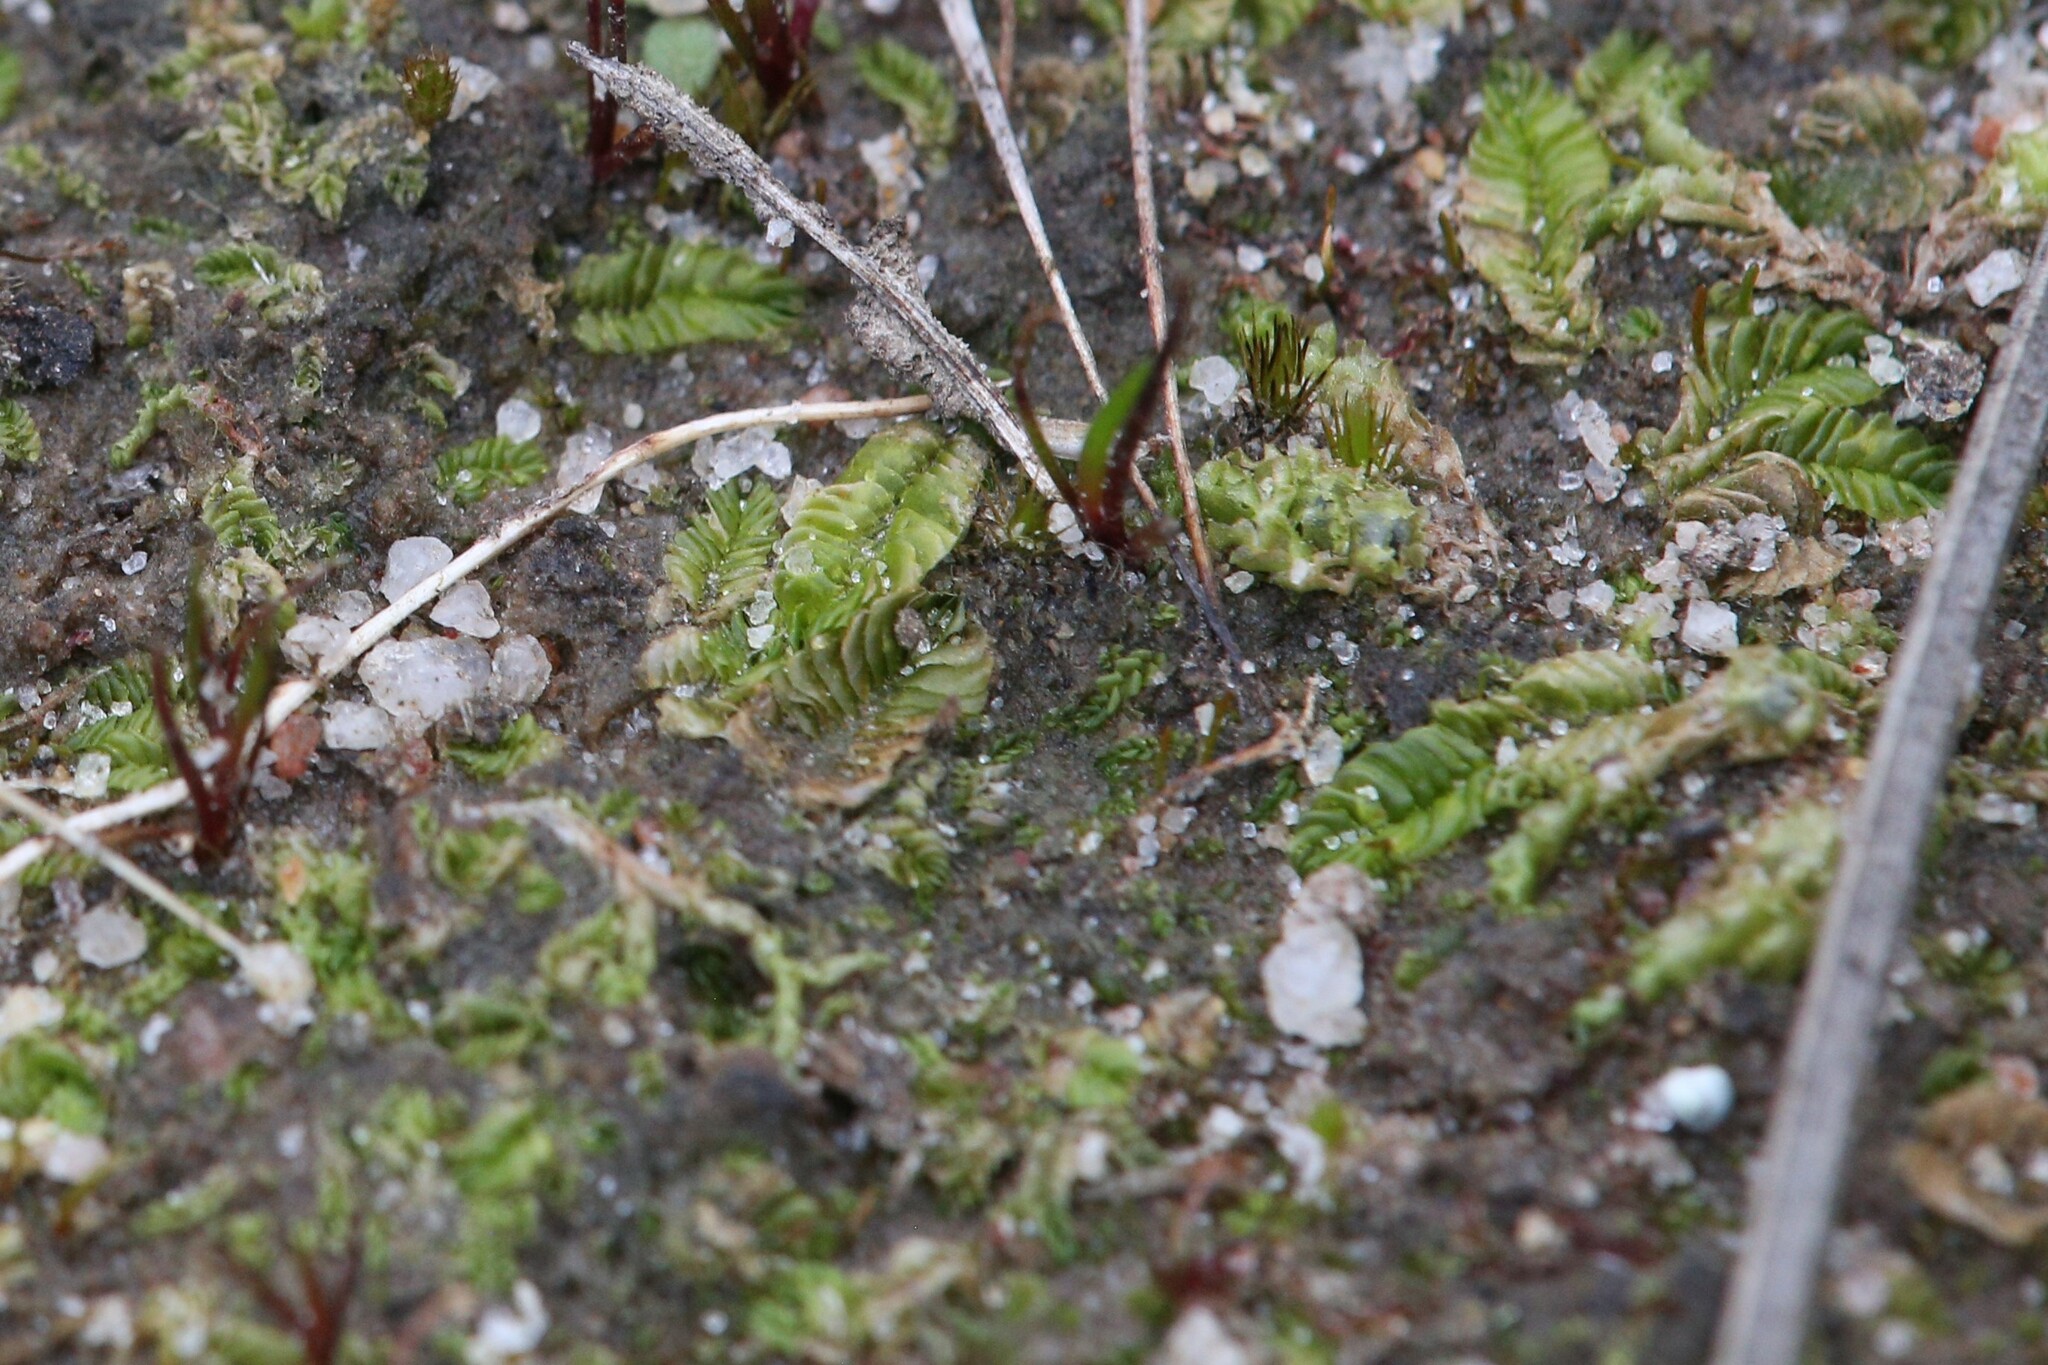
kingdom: Plantae
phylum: Marchantiophyta
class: Jungermanniopsida
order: Jungermanniales
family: Acrobolbaceae
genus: Lethocolea
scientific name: Lethocolea pansa
